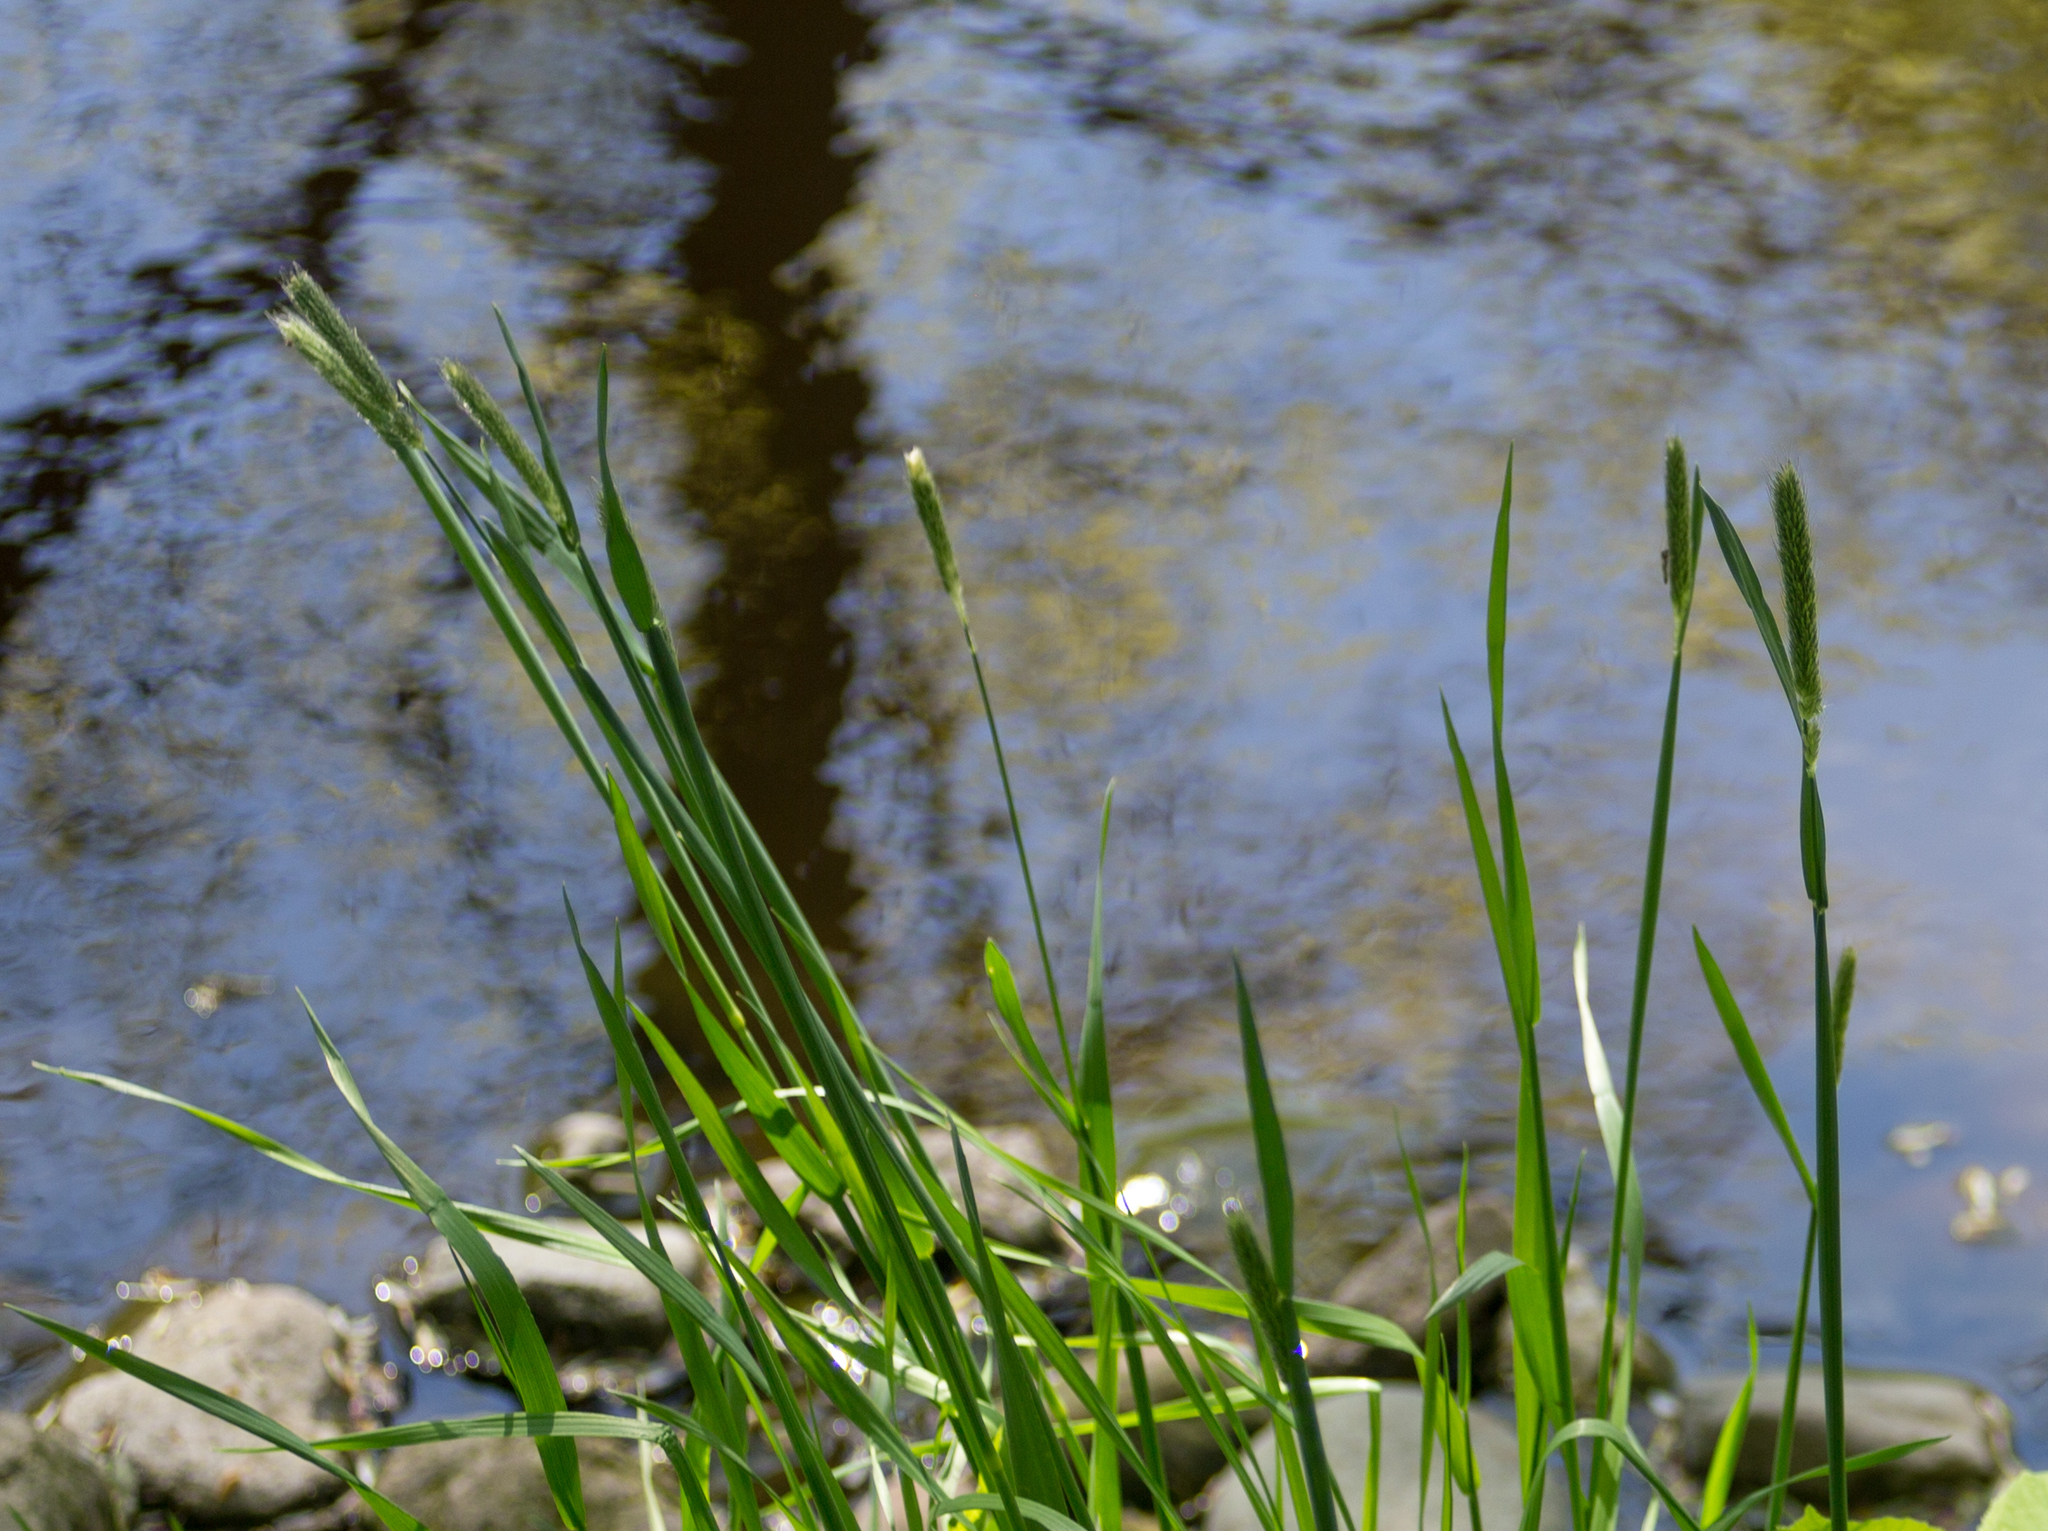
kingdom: Plantae
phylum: Tracheophyta
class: Liliopsida
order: Poales
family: Poaceae
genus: Alopecurus
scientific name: Alopecurus pratensis
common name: Meadow foxtail
